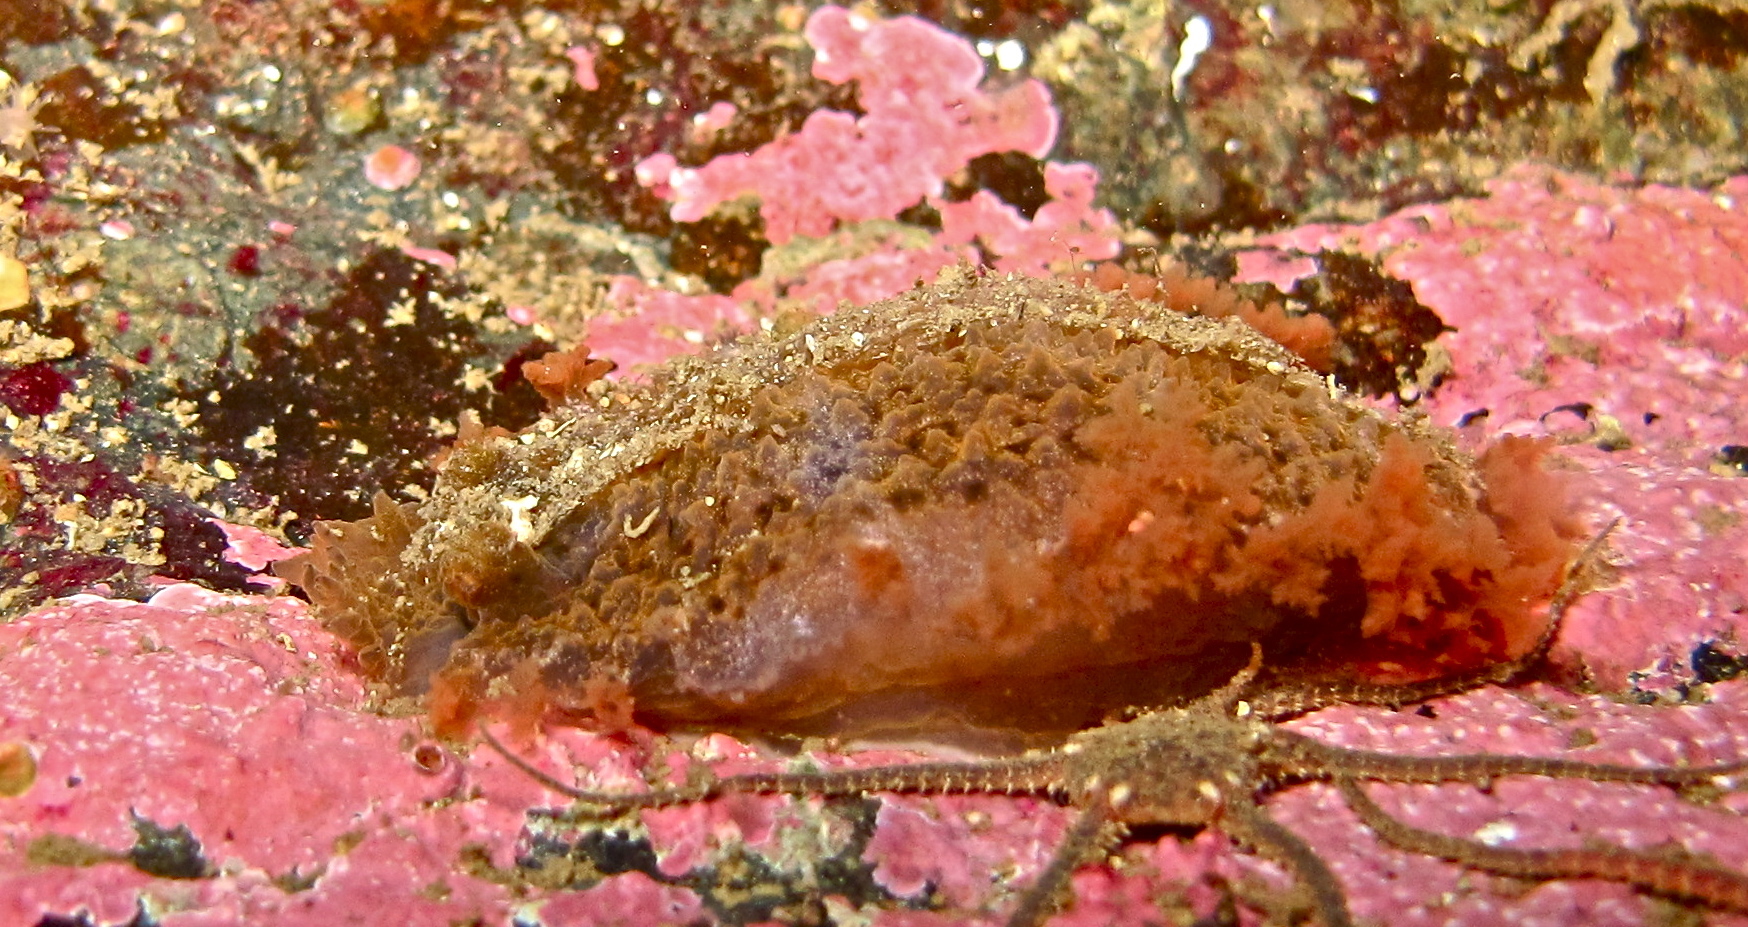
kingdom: Animalia
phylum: Mollusca
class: Gastropoda
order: Nudibranchia
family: Tritoniidae
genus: Tritonia
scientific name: Tritonia hombergii
